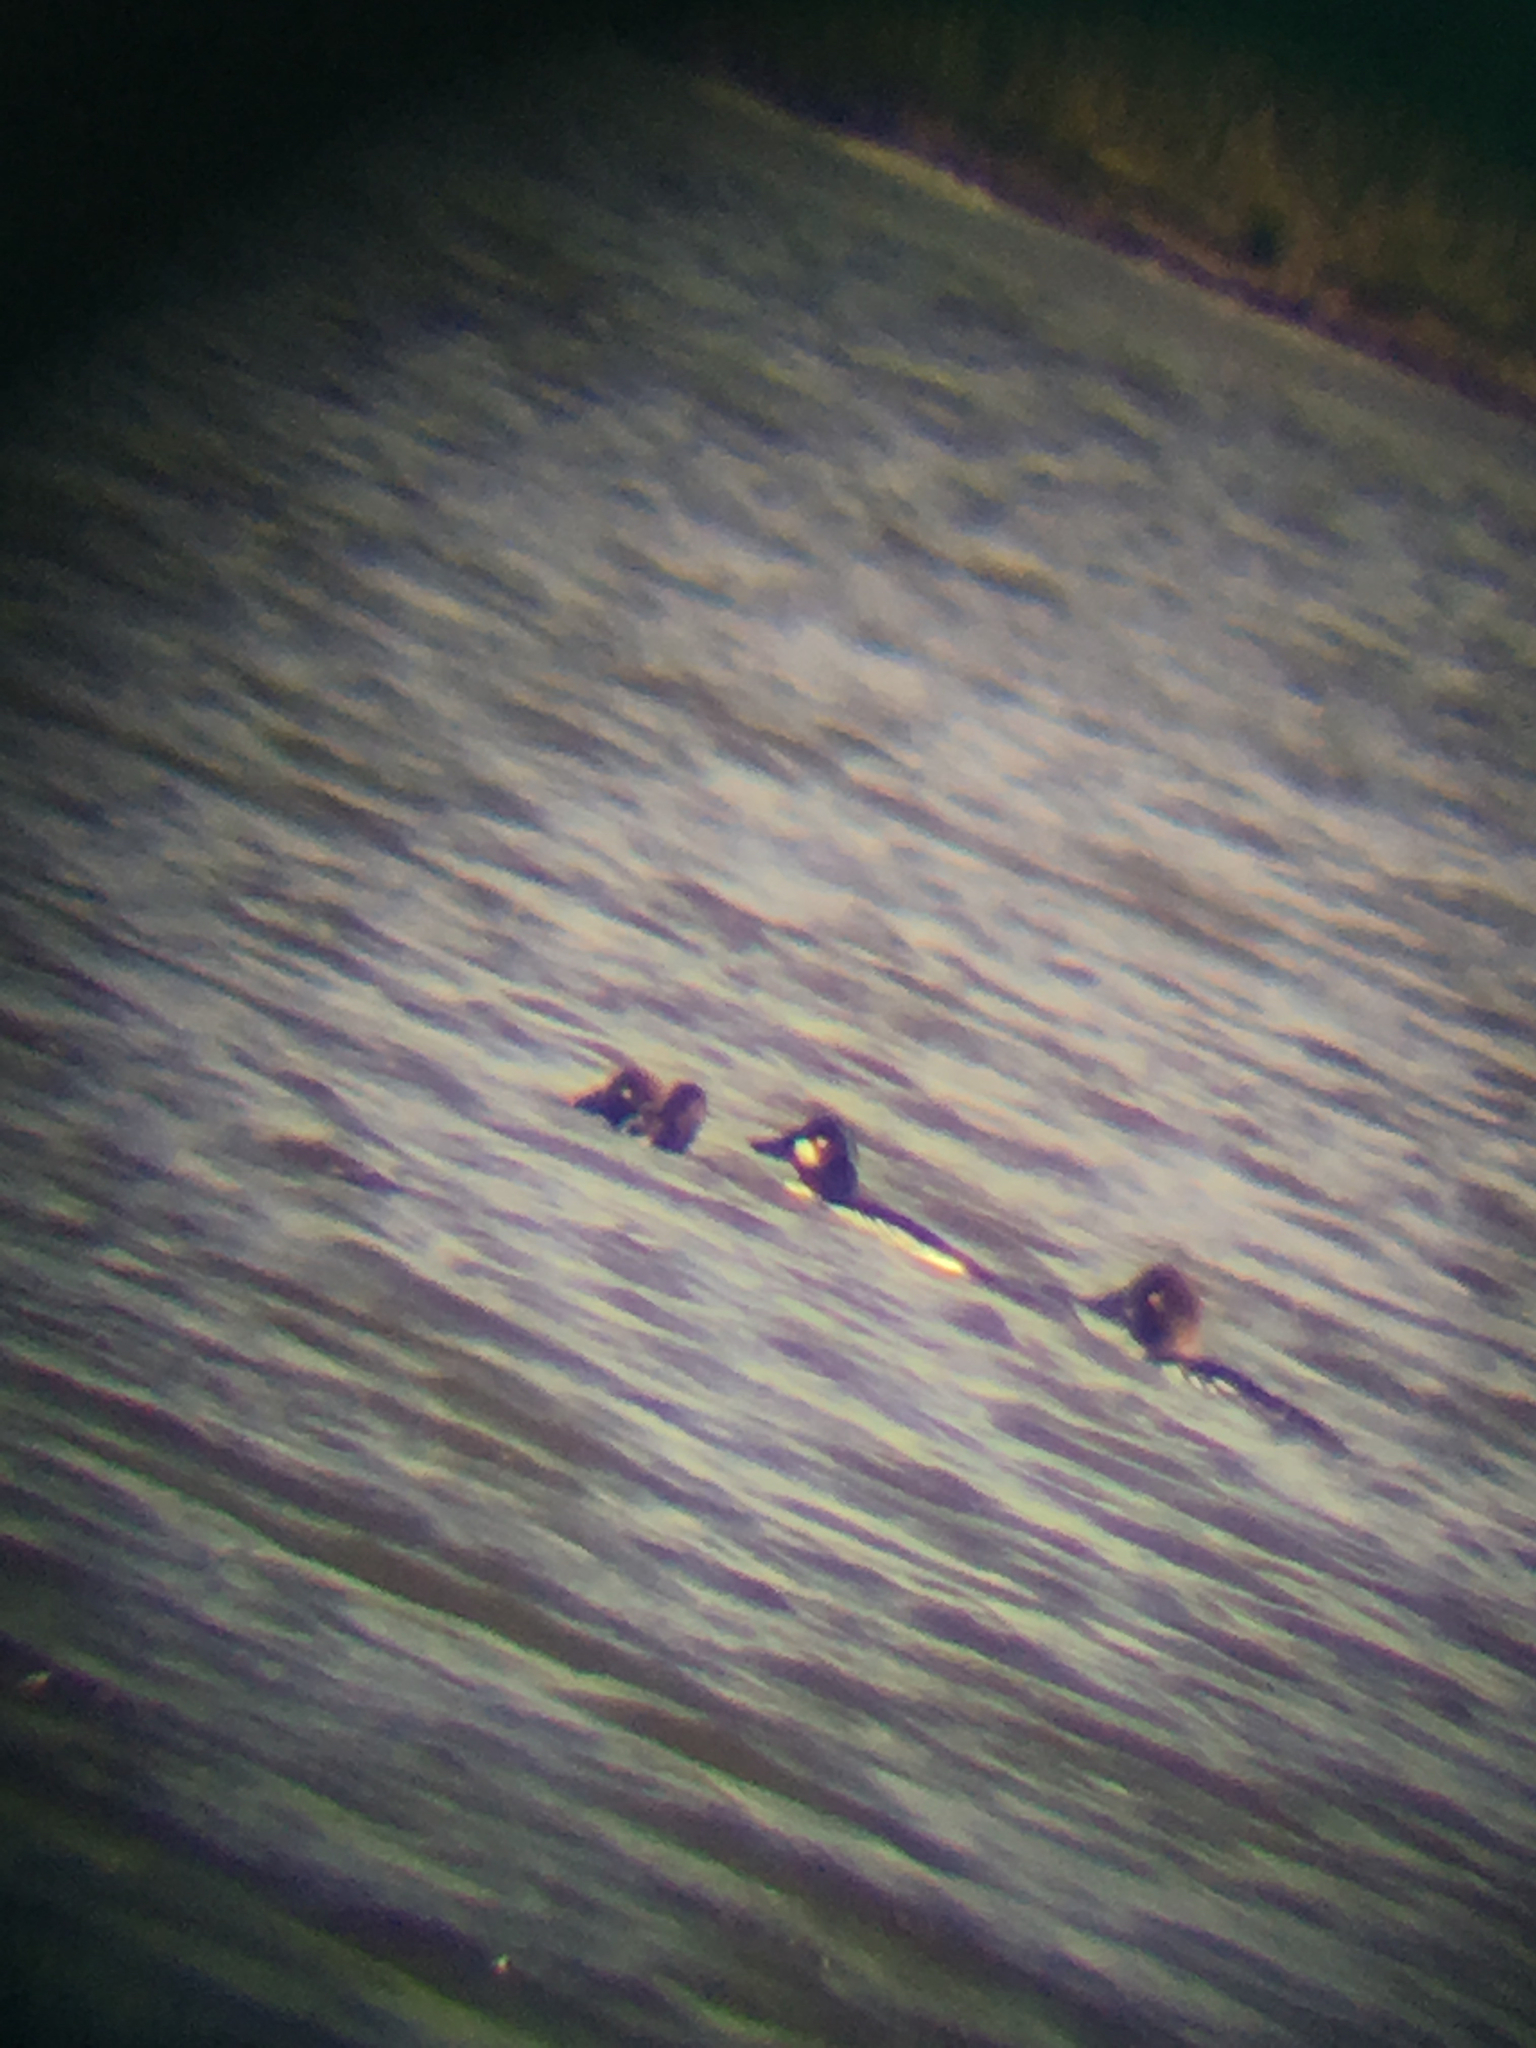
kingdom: Animalia
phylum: Chordata
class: Aves
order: Anseriformes
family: Anatidae
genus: Bucephala
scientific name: Bucephala clangula
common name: Common goldeneye
